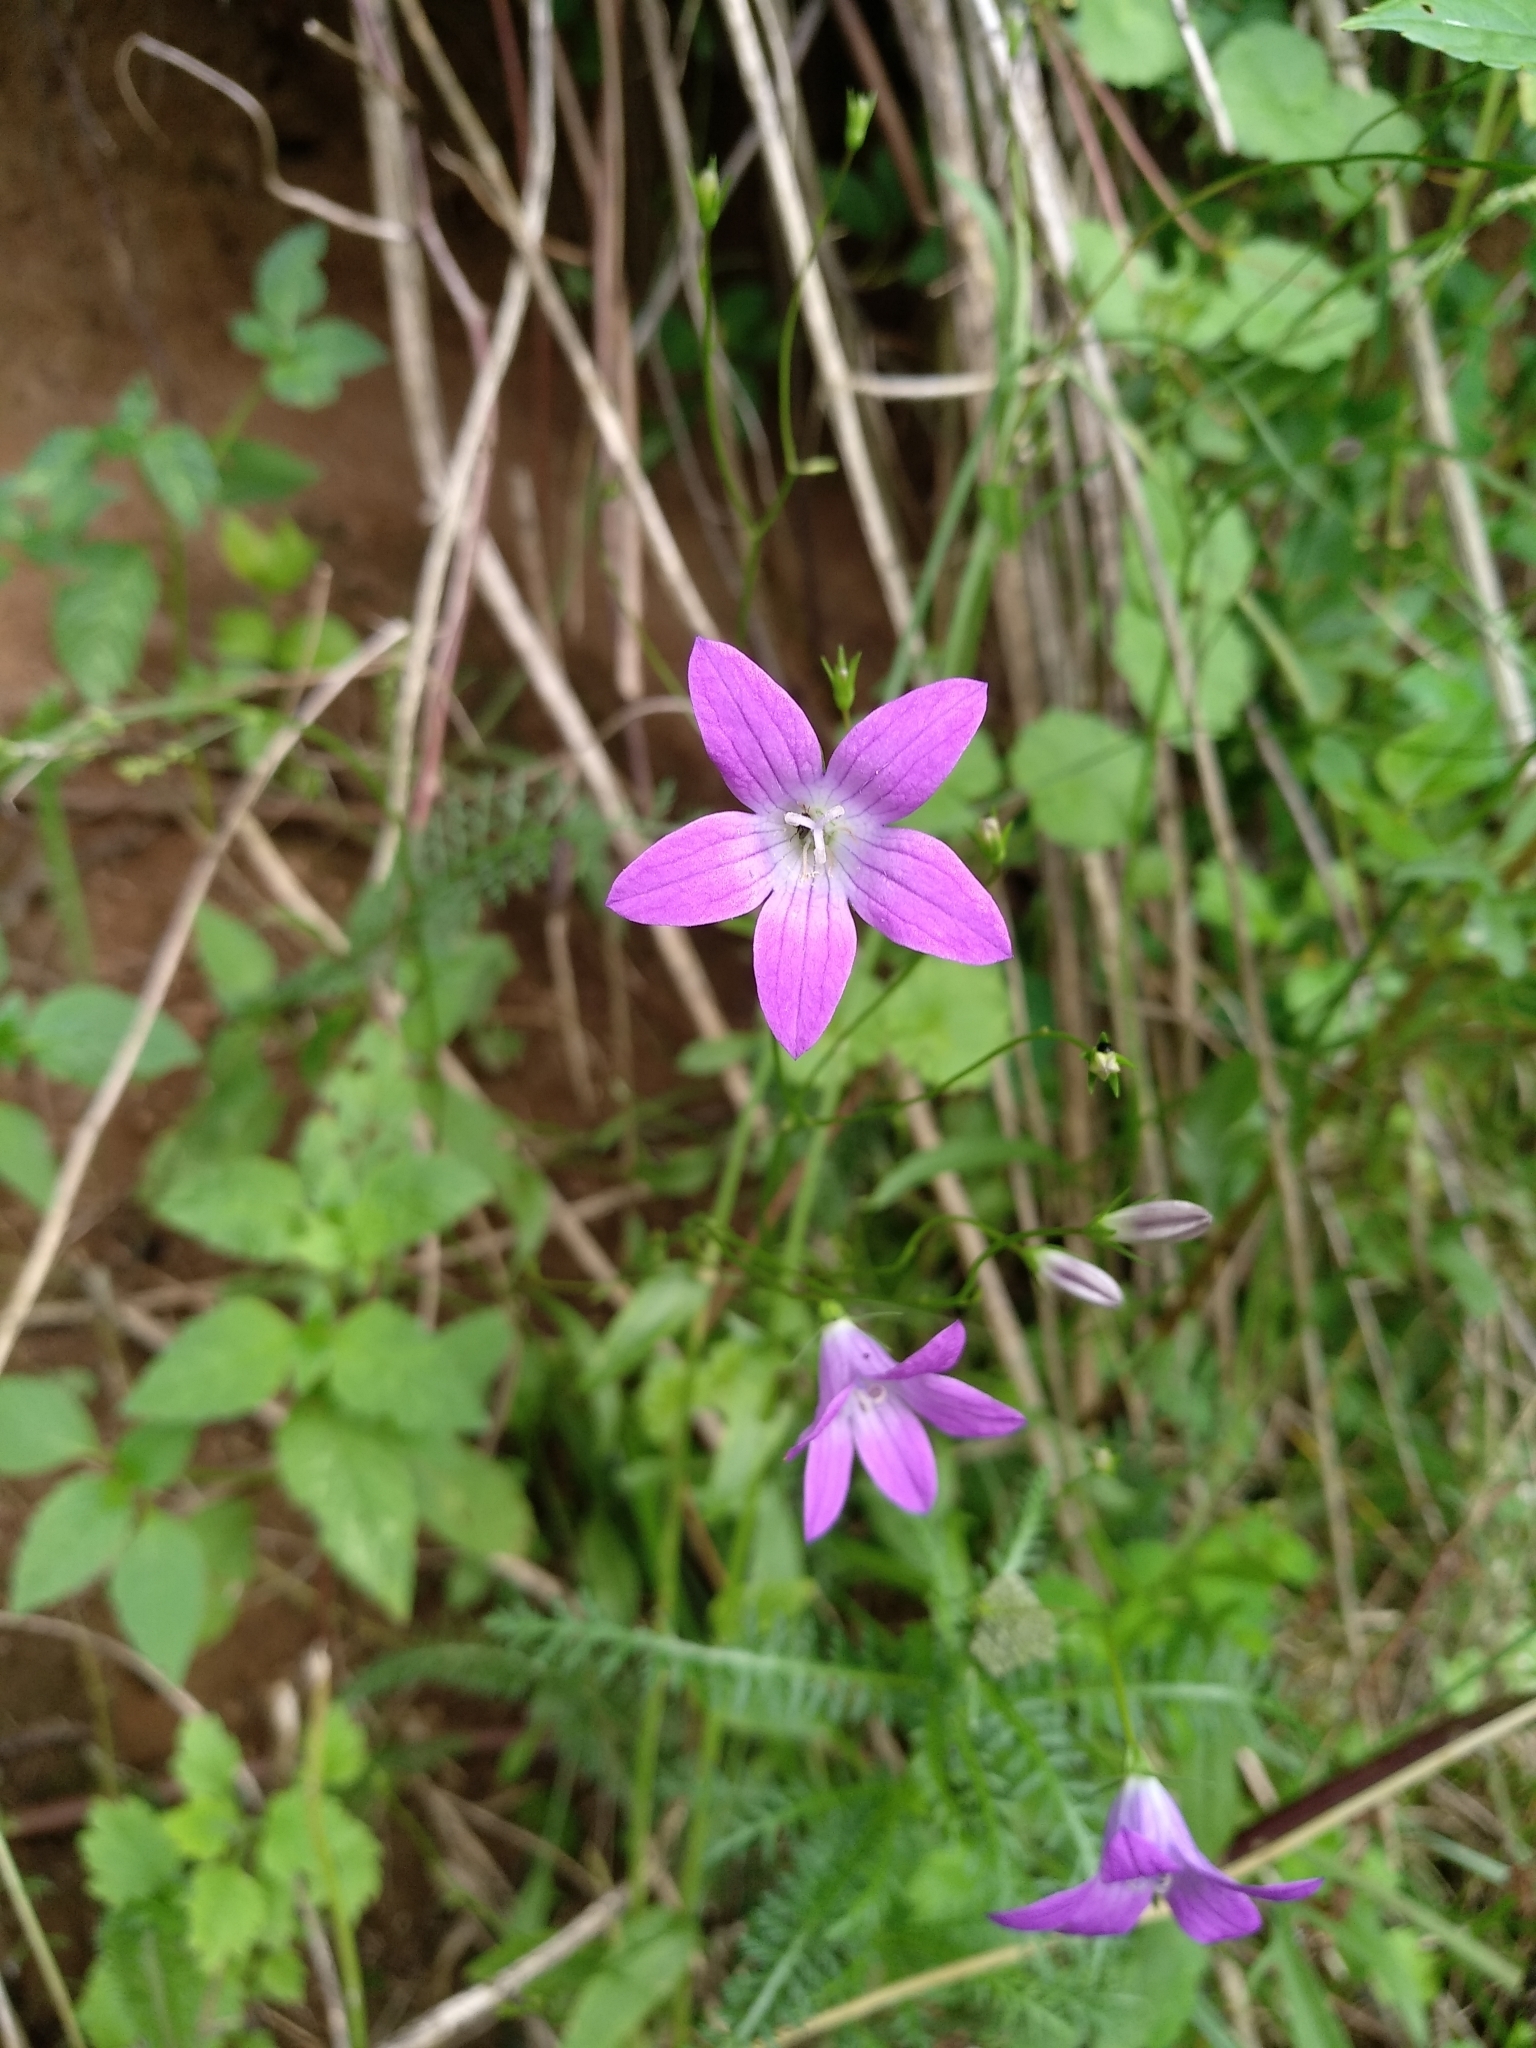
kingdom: Plantae
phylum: Tracheophyta
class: Magnoliopsida
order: Asterales
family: Campanulaceae
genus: Campanula
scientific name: Campanula patula
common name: Spreading bellflower
